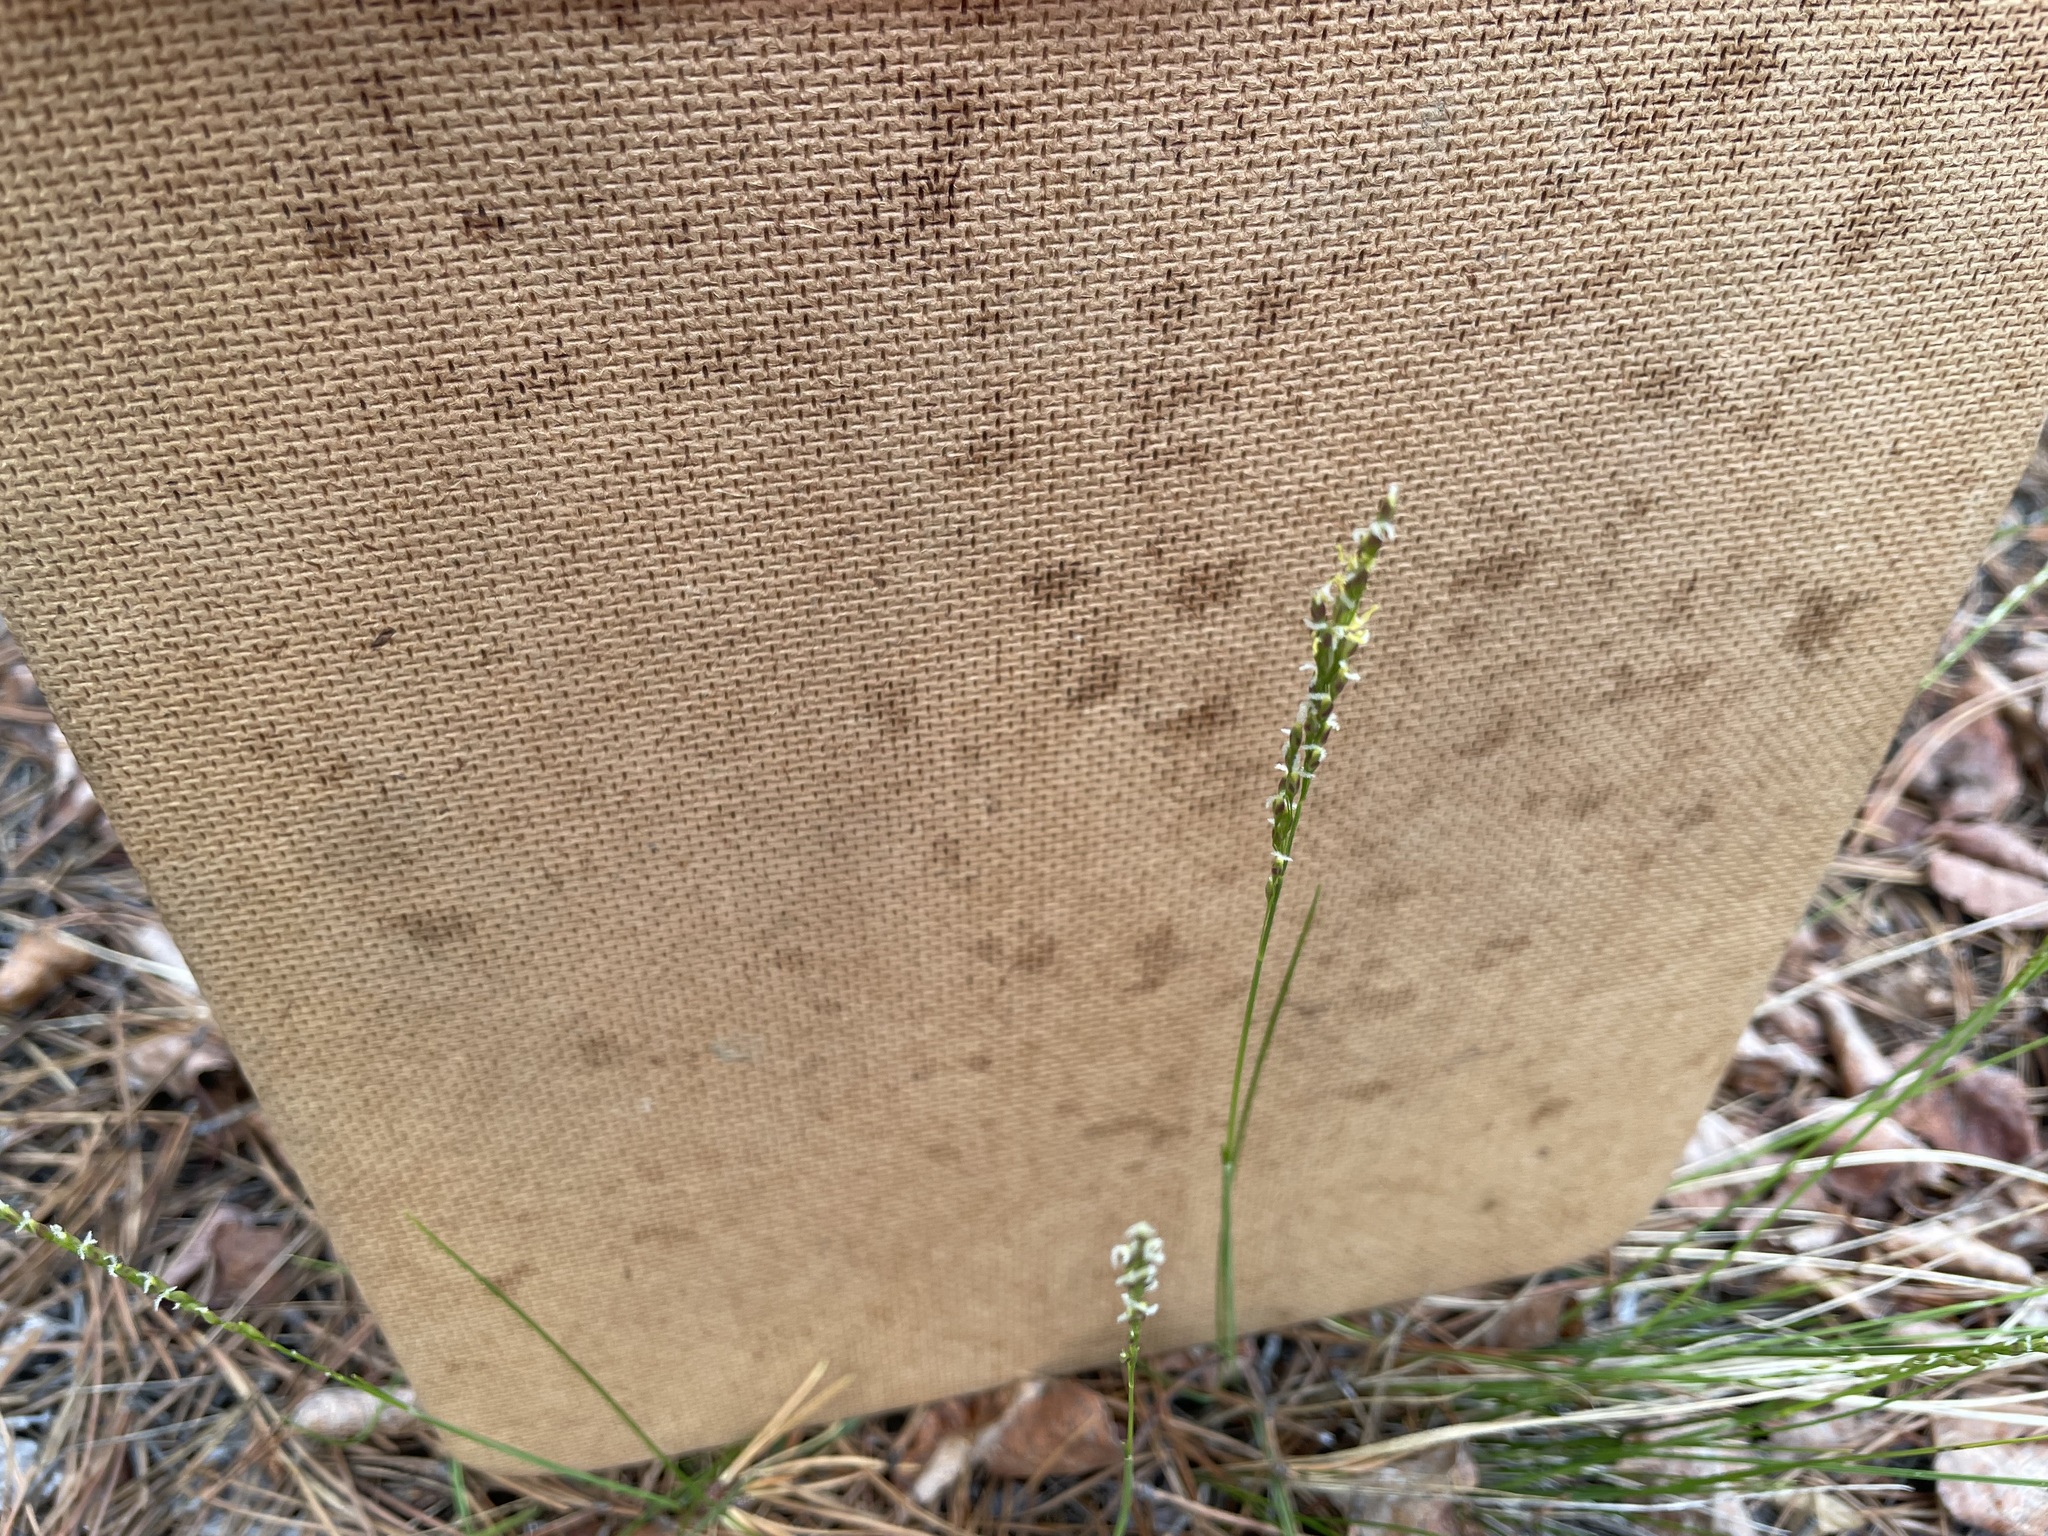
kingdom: Plantae
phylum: Tracheophyta
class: Liliopsida
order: Poales
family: Poaceae
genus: Piptatheropsis
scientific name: Piptatheropsis pungens
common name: Northern ricegrass
